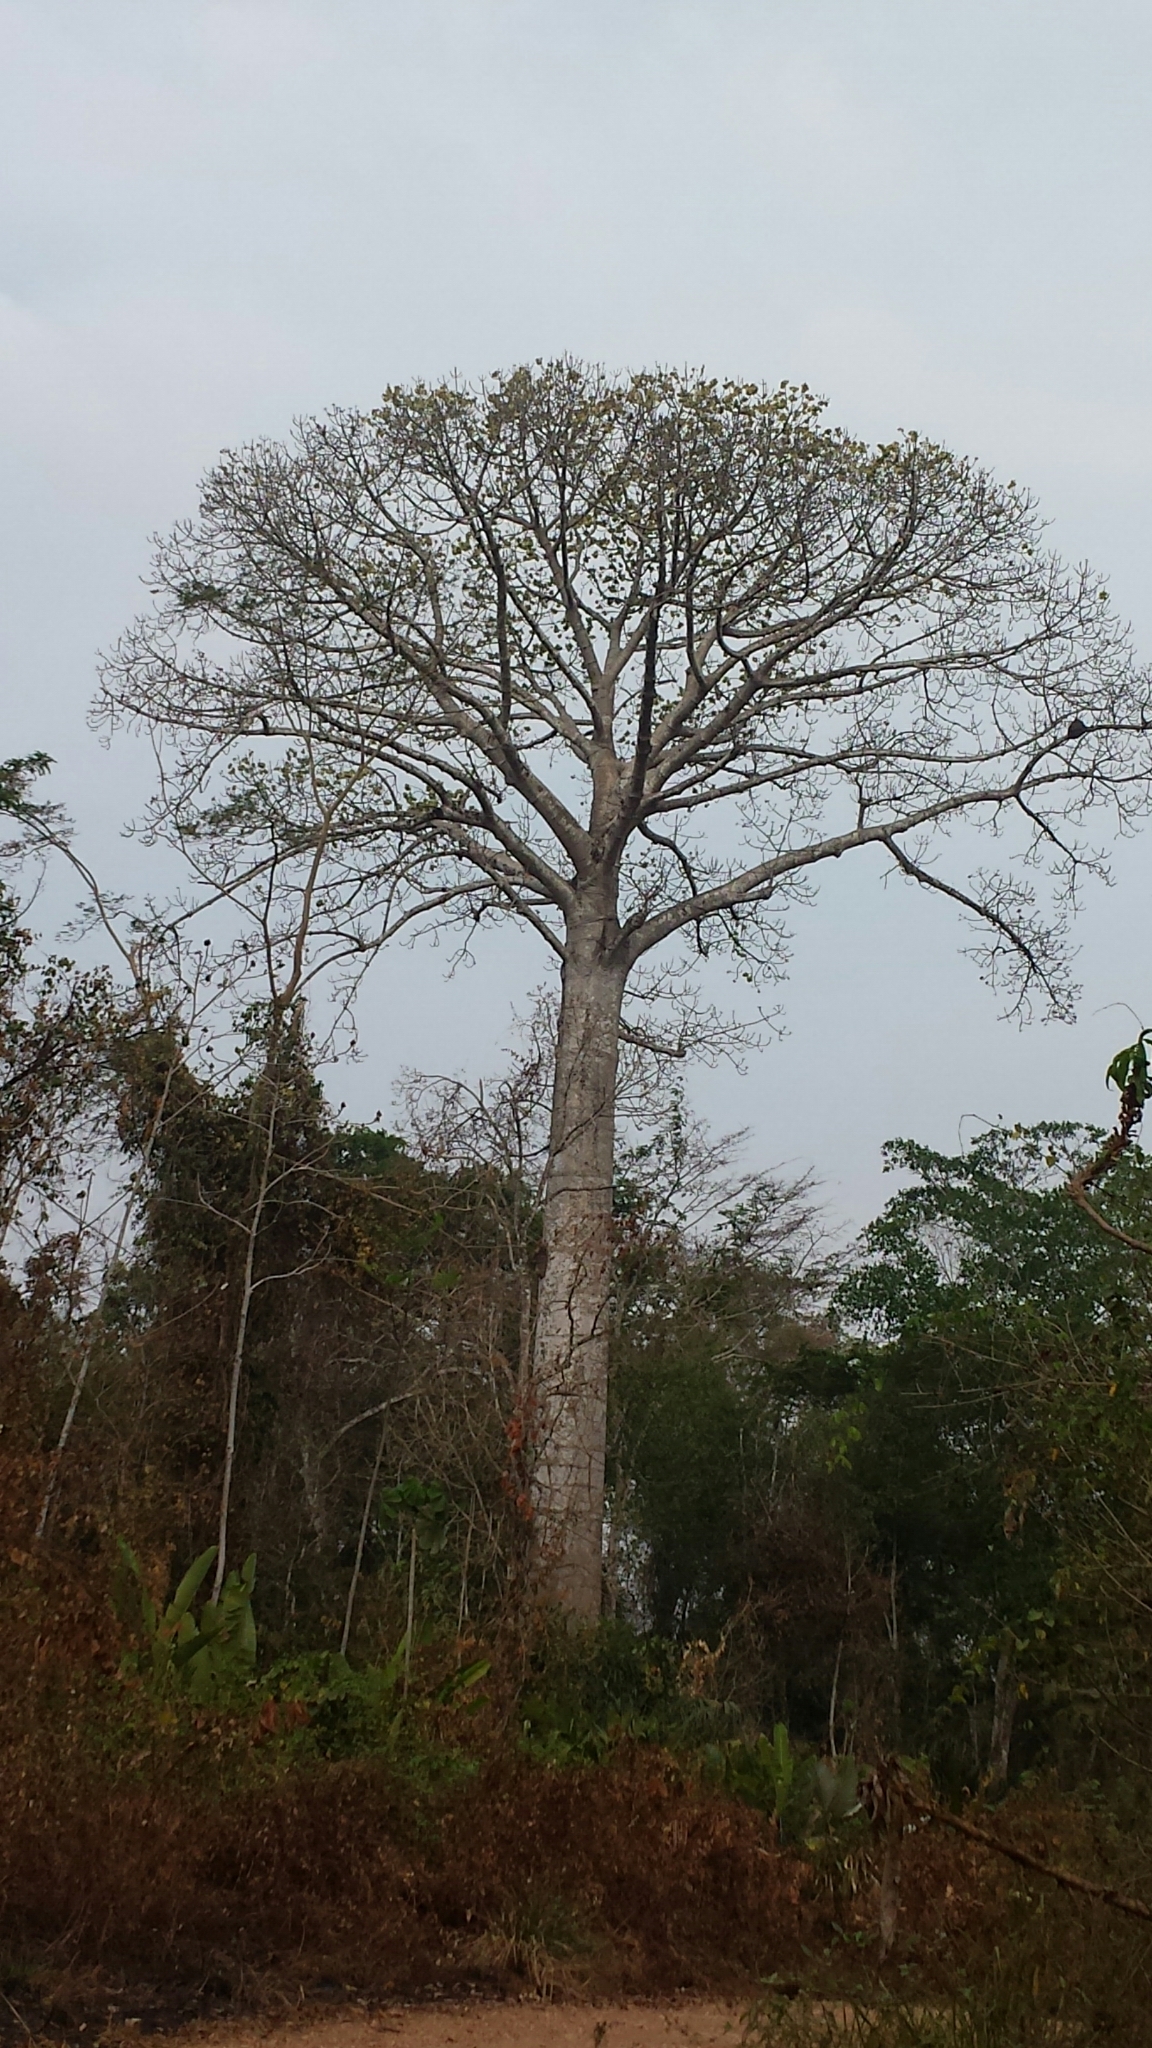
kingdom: Plantae
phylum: Tracheophyta
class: Magnoliopsida
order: Malvales
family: Malvaceae
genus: Cavanillesia
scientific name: Cavanillesia platanifolia
